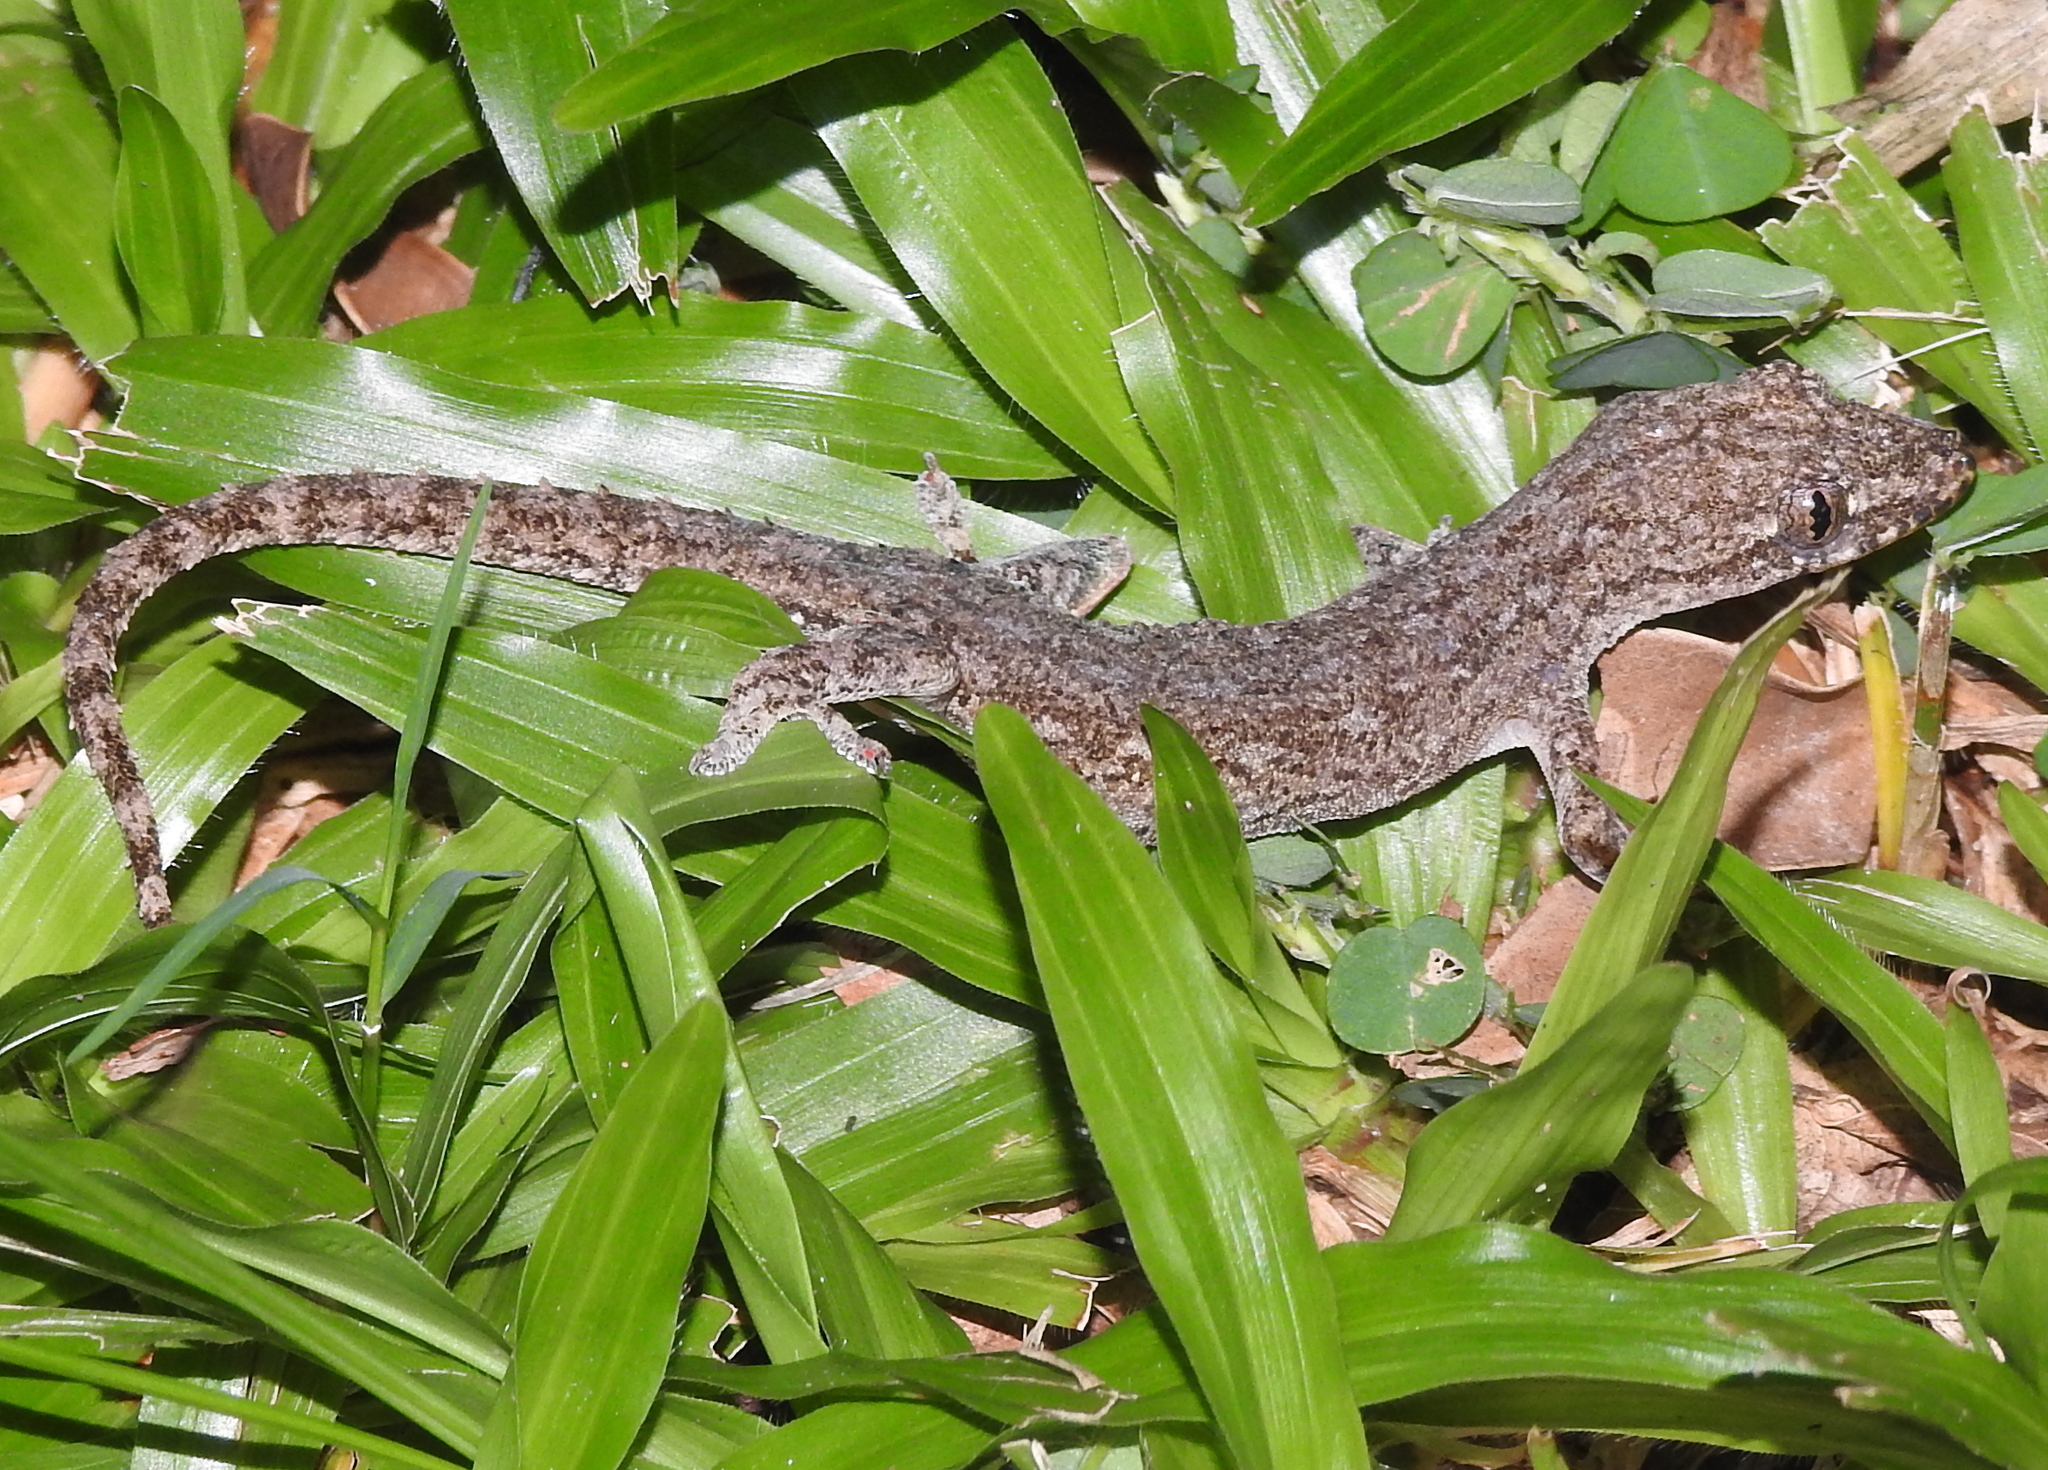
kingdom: Animalia
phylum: Chordata
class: Squamata
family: Gekkonidae
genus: Hemidactylus
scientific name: Hemidactylus frenatus
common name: Common house gecko
